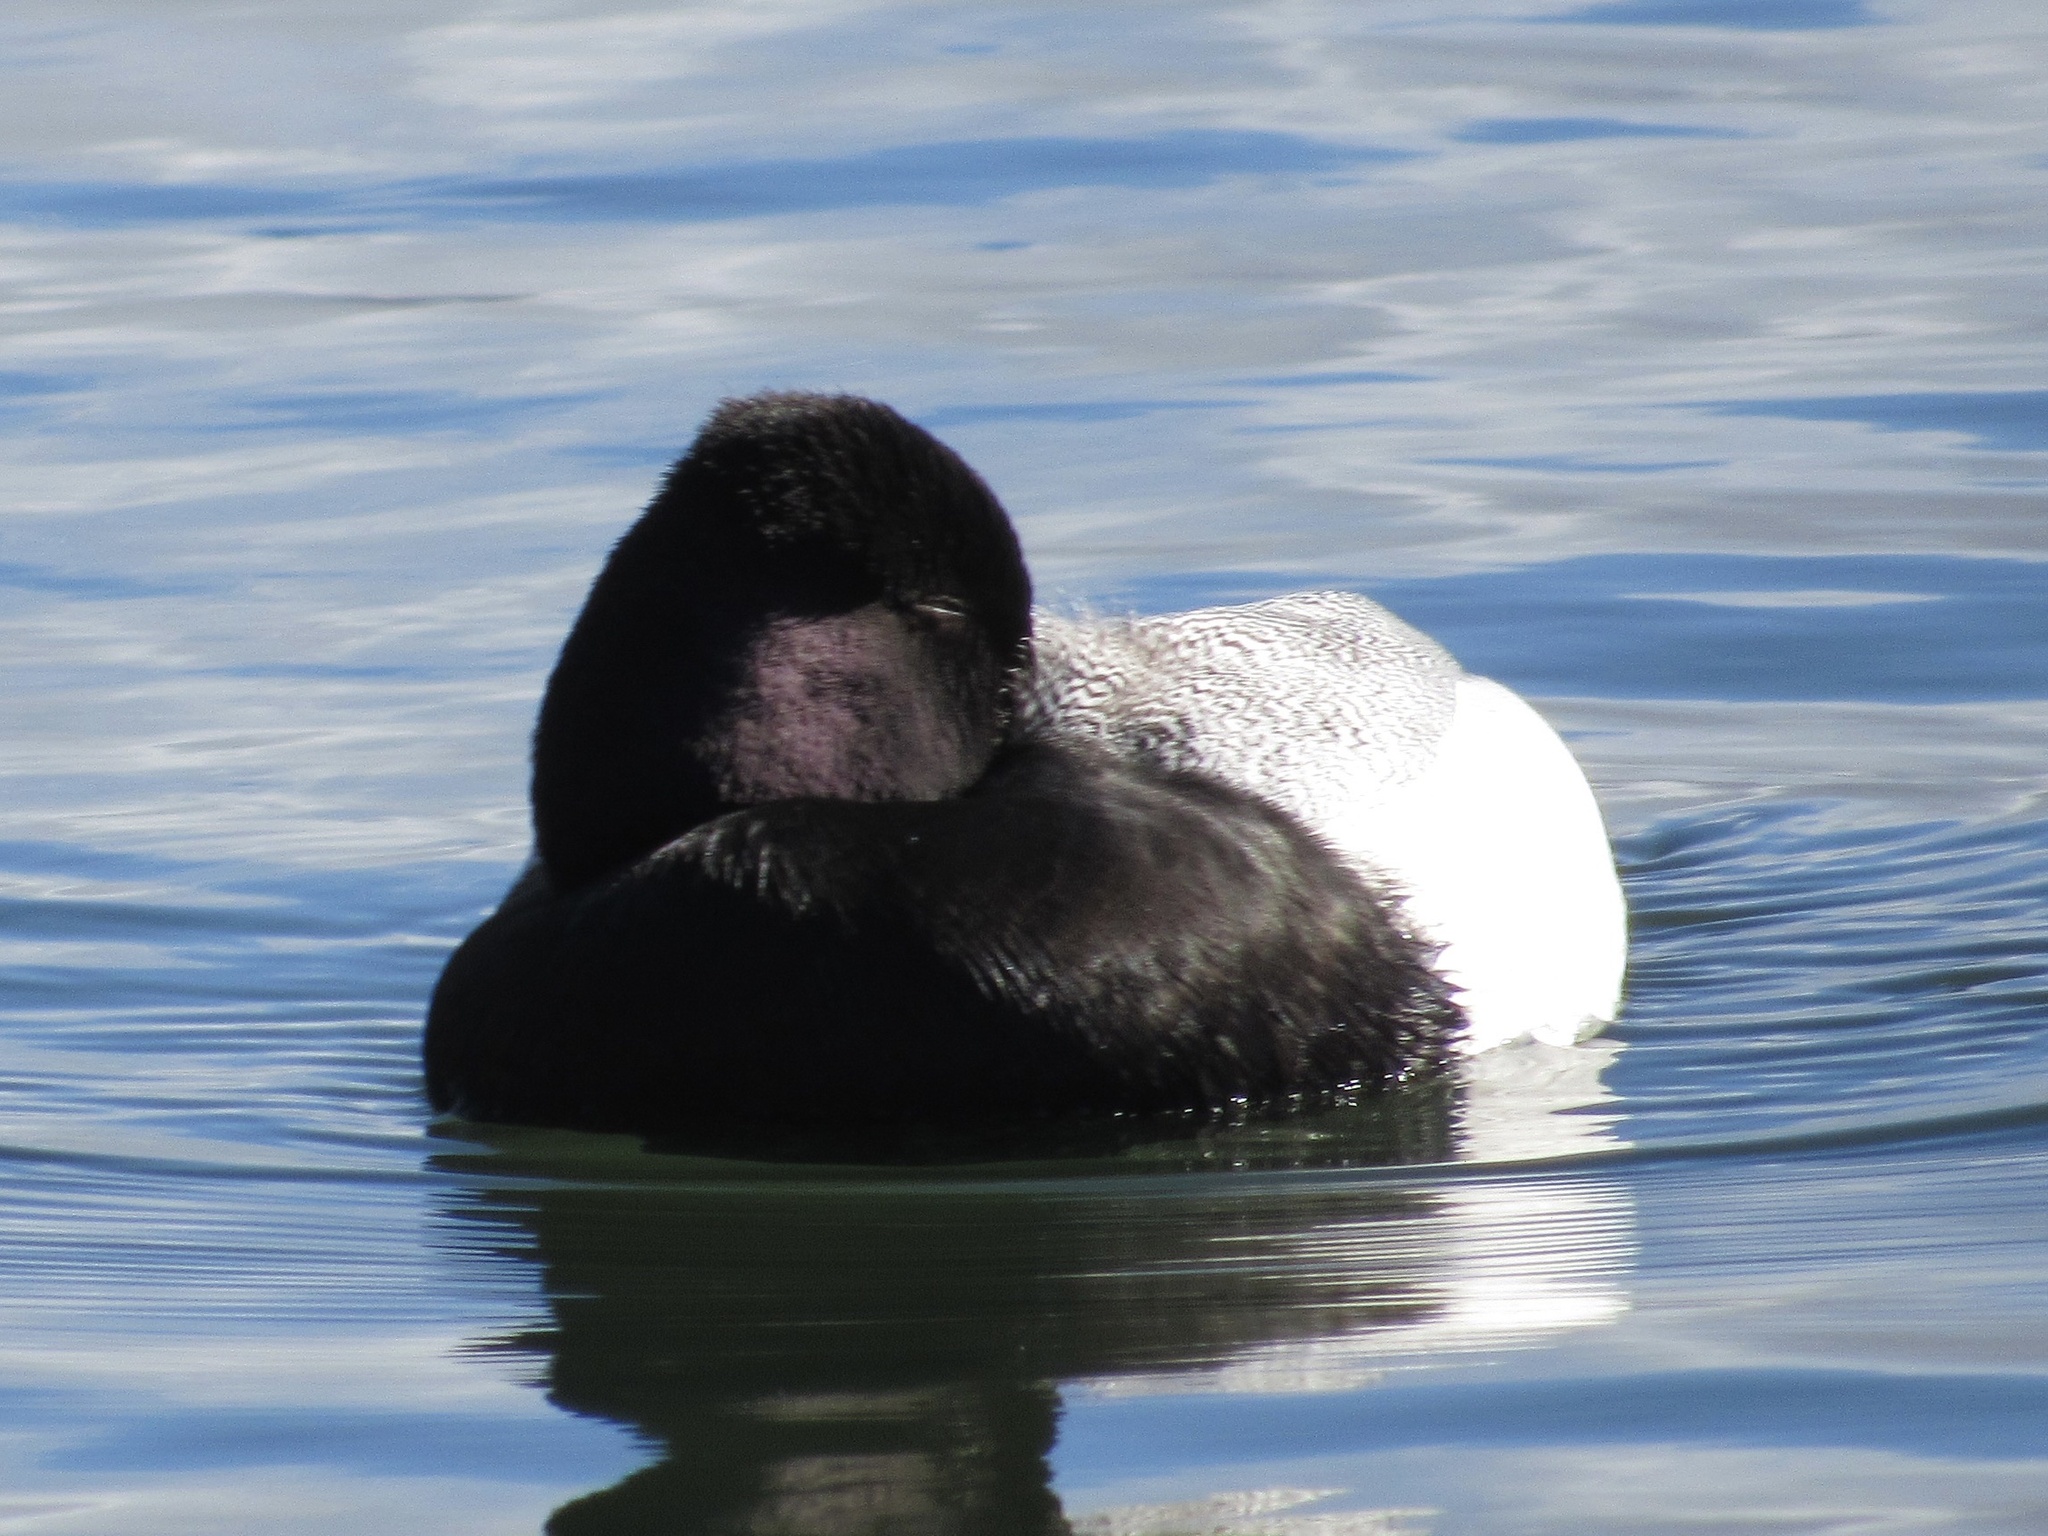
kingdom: Animalia
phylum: Chordata
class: Aves
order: Anseriformes
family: Anatidae
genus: Aythya
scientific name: Aythya affinis
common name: Lesser scaup
